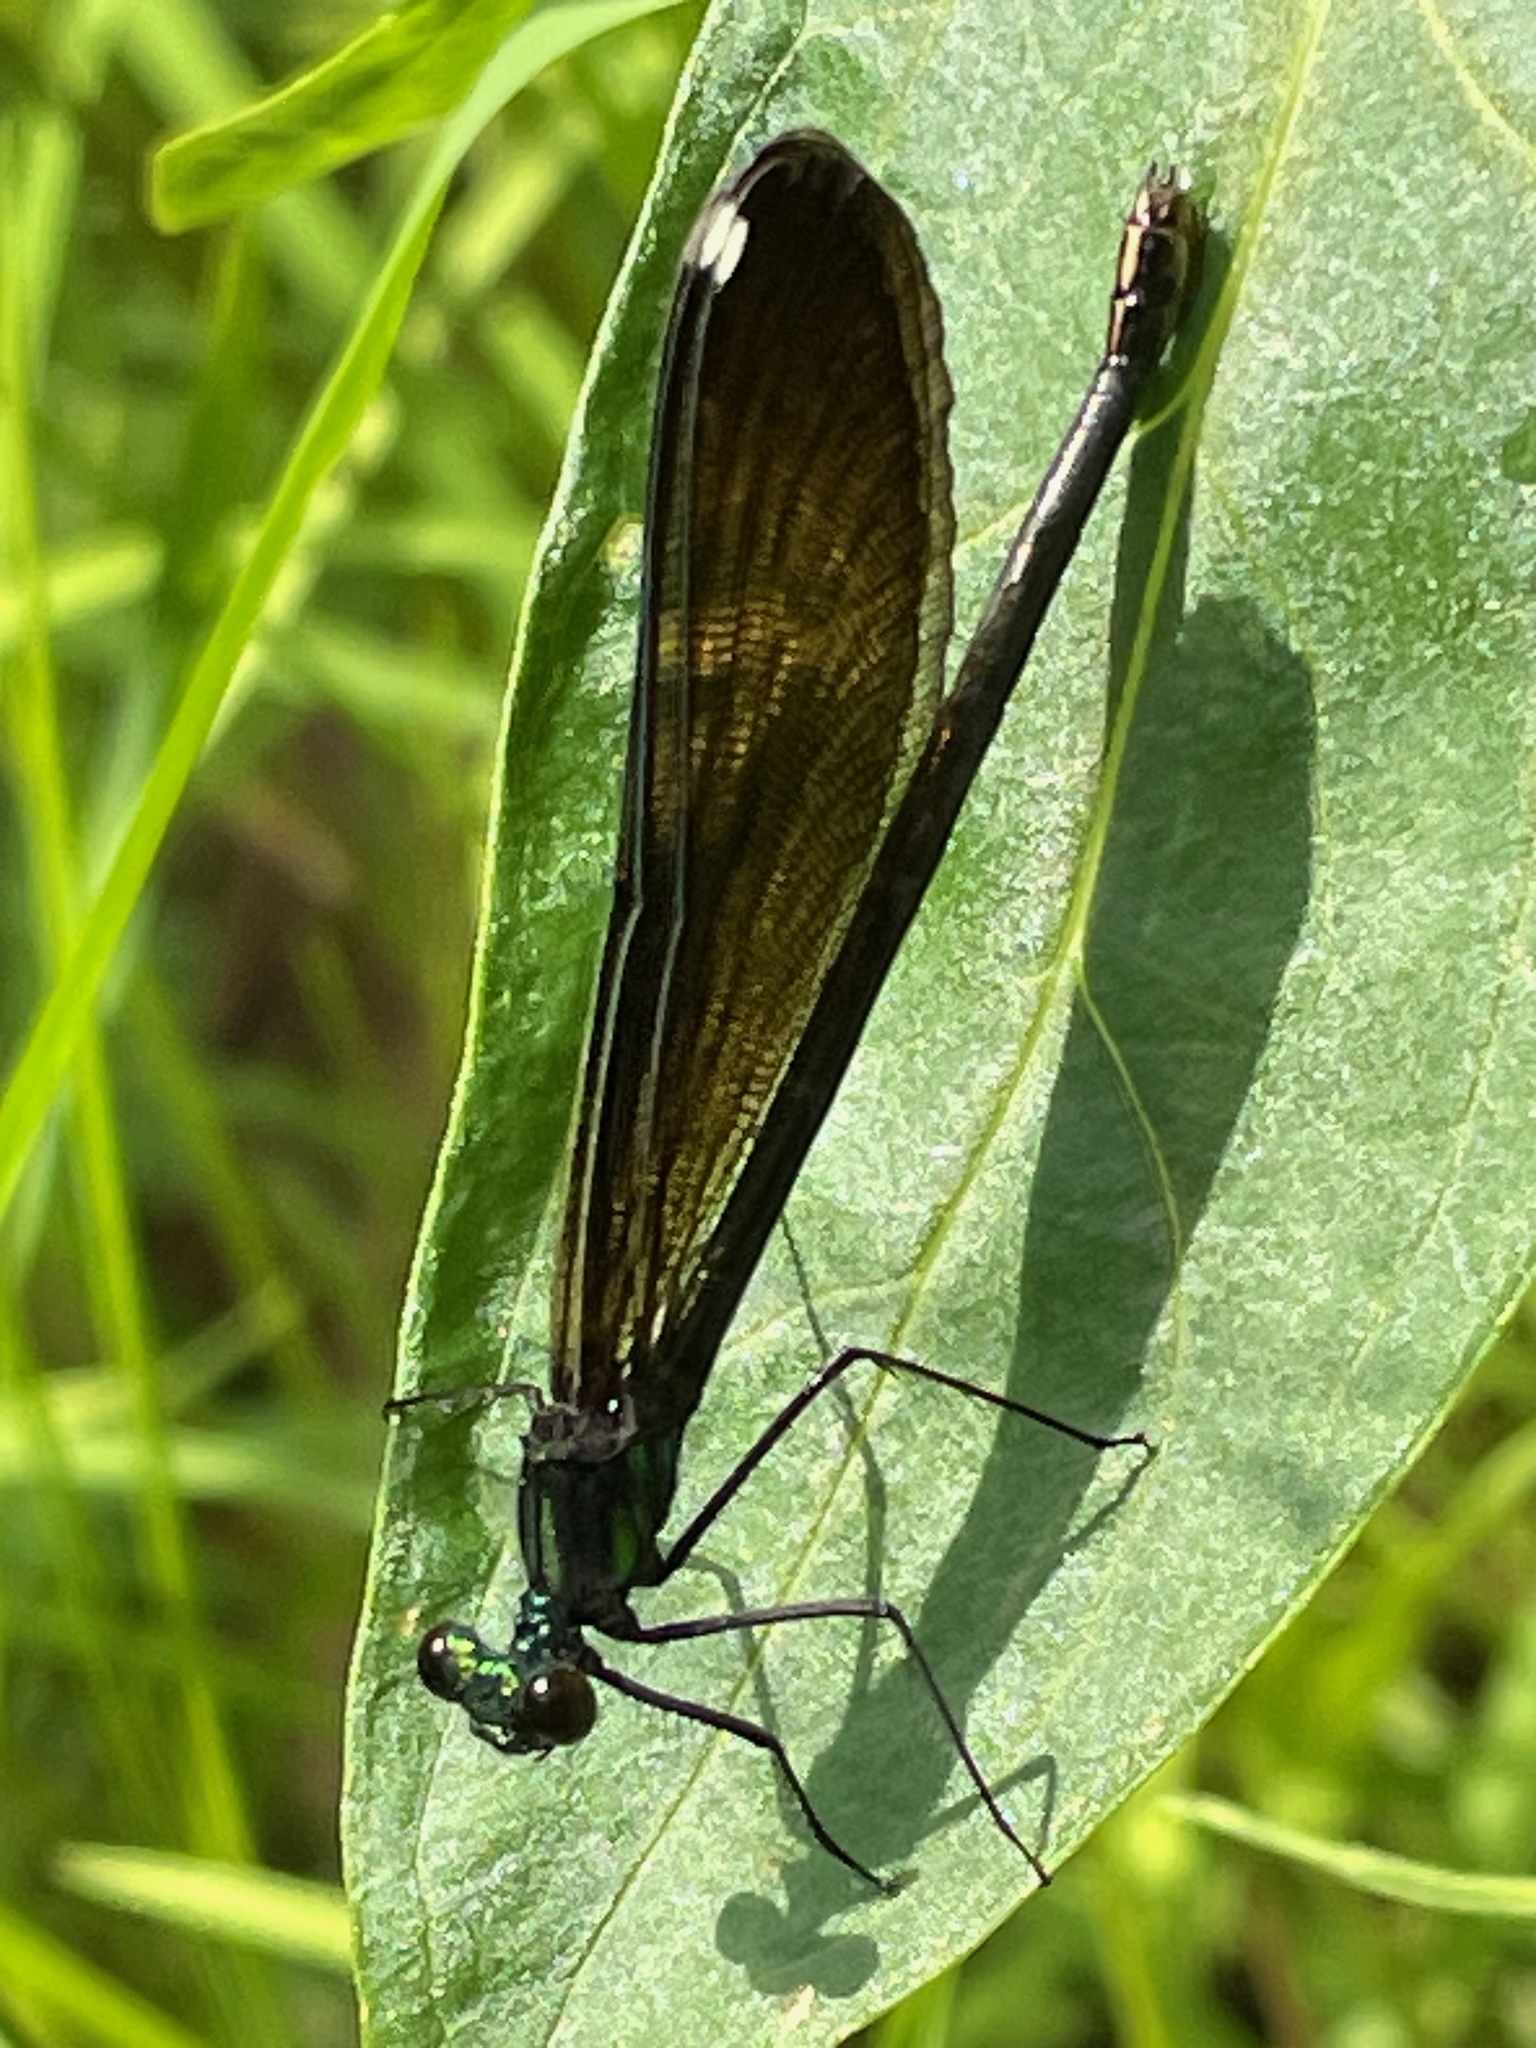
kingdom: Animalia
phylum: Arthropoda
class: Insecta
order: Odonata
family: Calopterygidae
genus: Calopteryx
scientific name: Calopteryx maculata
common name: Ebony jewelwing
